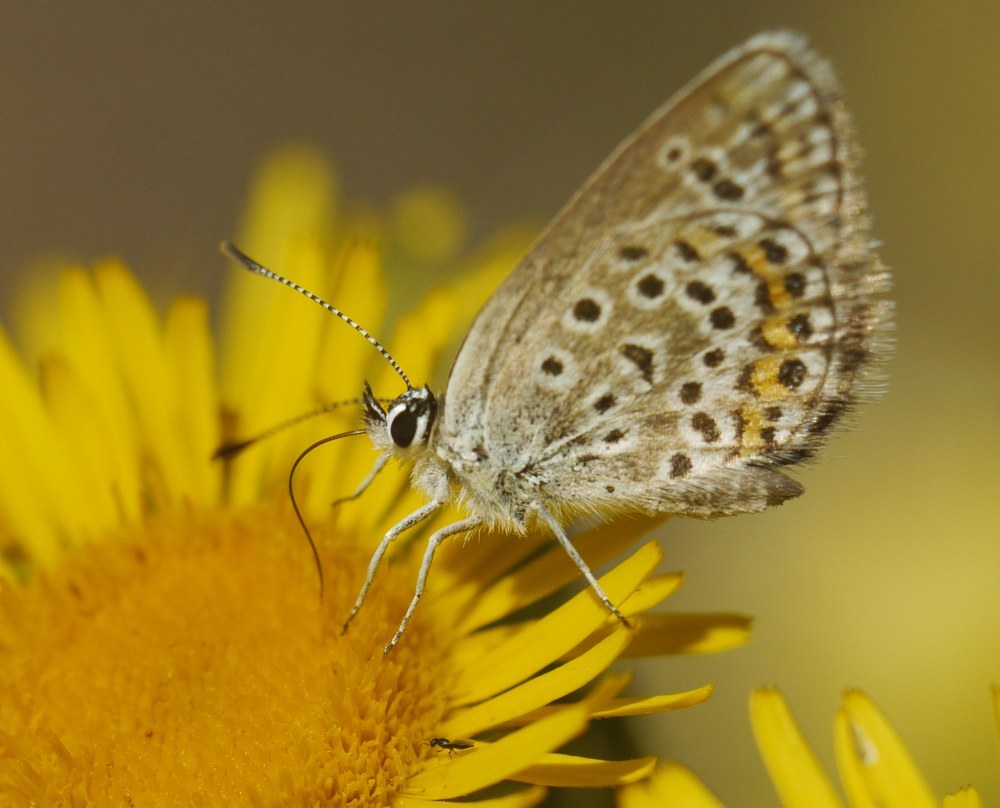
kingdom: Animalia
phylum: Arthropoda
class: Insecta
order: Lepidoptera
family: Lycaenidae
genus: Plebejus
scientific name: Plebejus argus
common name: Silver-studded blue
